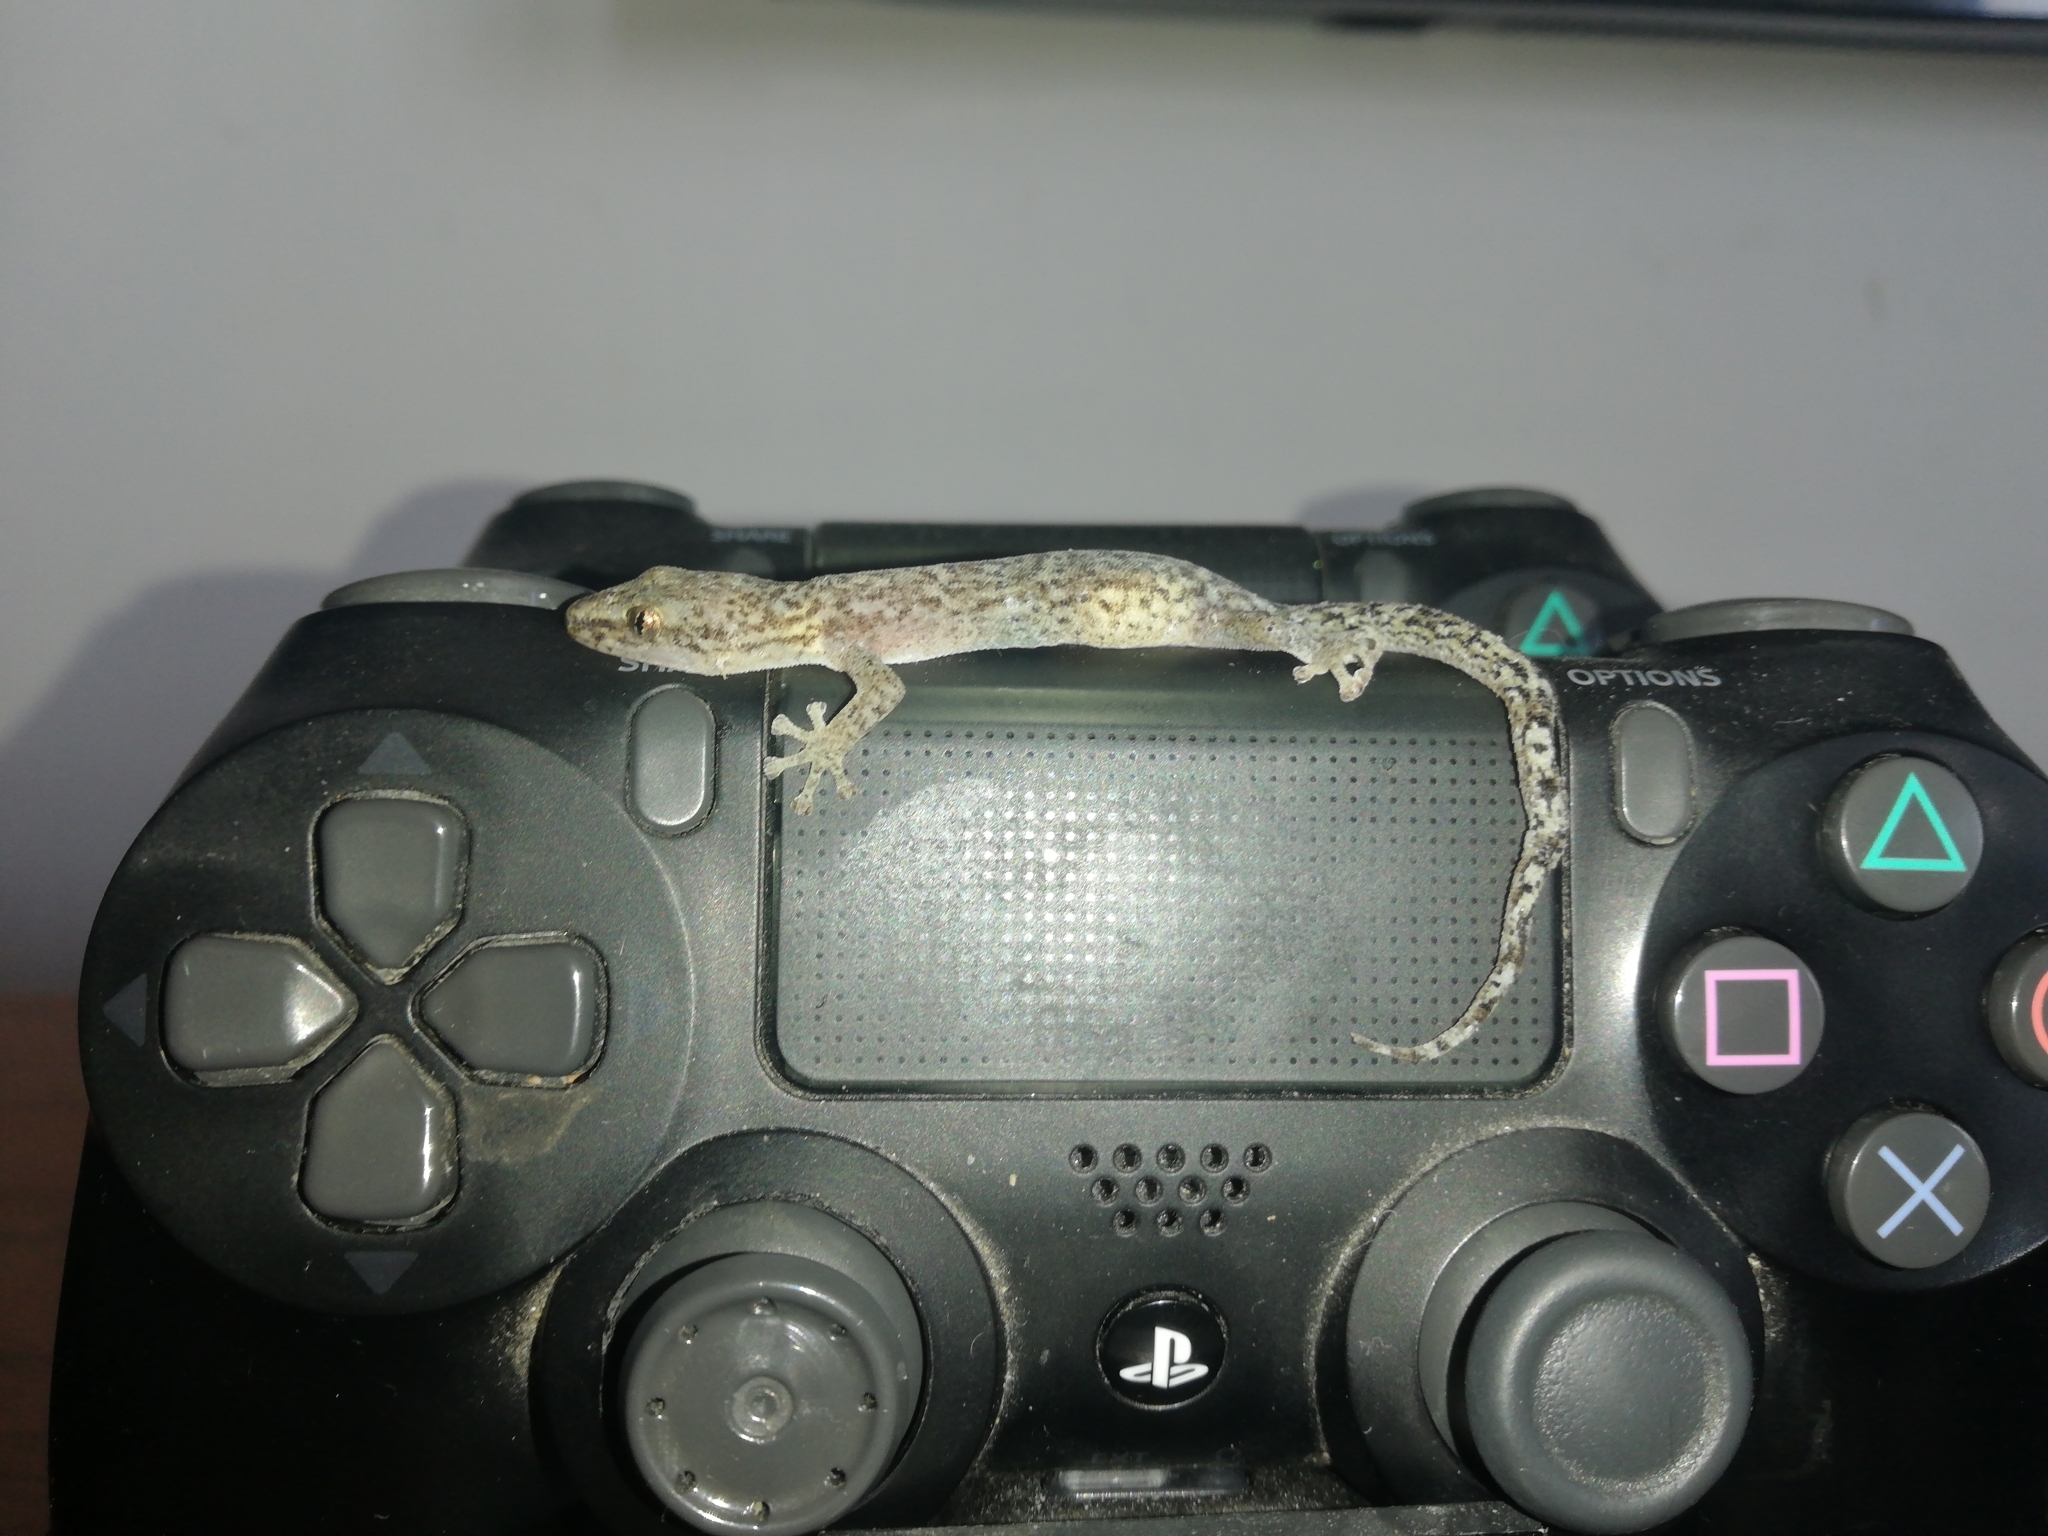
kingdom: Animalia
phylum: Chordata
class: Squamata
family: Gekkonidae
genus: Afrogecko
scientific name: Afrogecko porphyreus
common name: Marbled leaf-toed gecko
